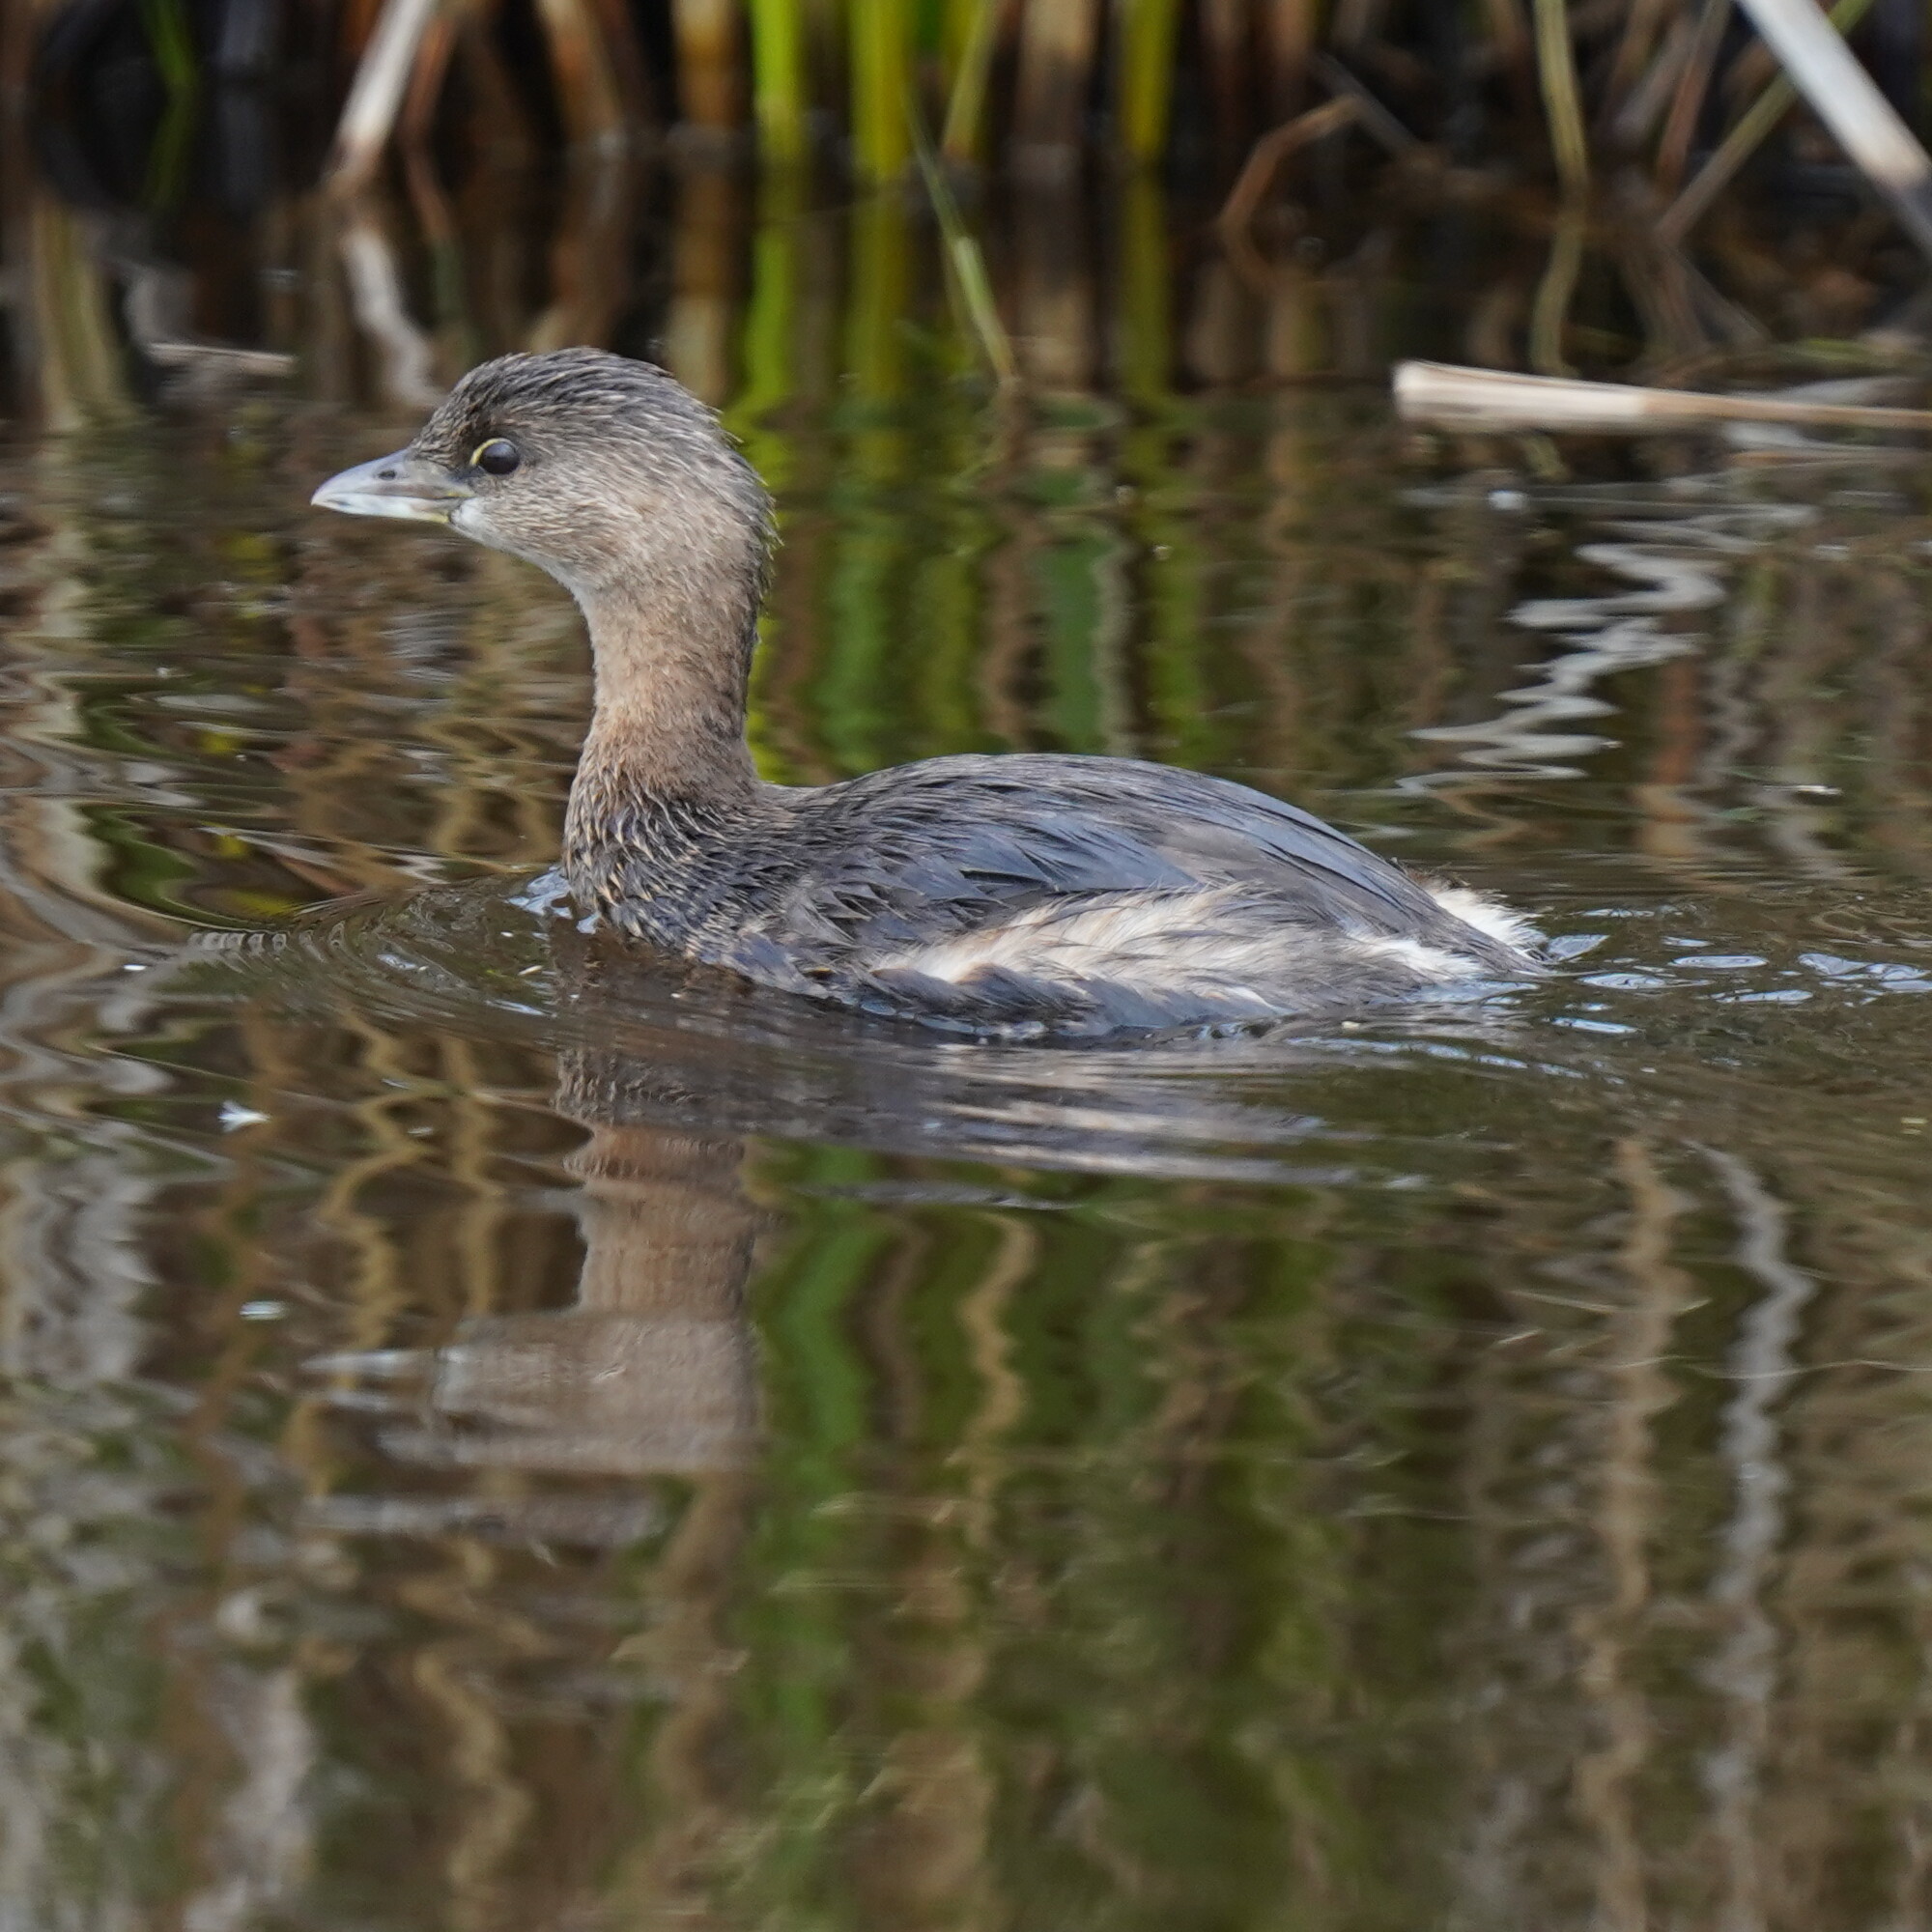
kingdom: Animalia
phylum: Chordata
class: Aves
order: Podicipediformes
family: Podicipedidae
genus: Podilymbus
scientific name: Podilymbus podiceps
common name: Pied-billed grebe
